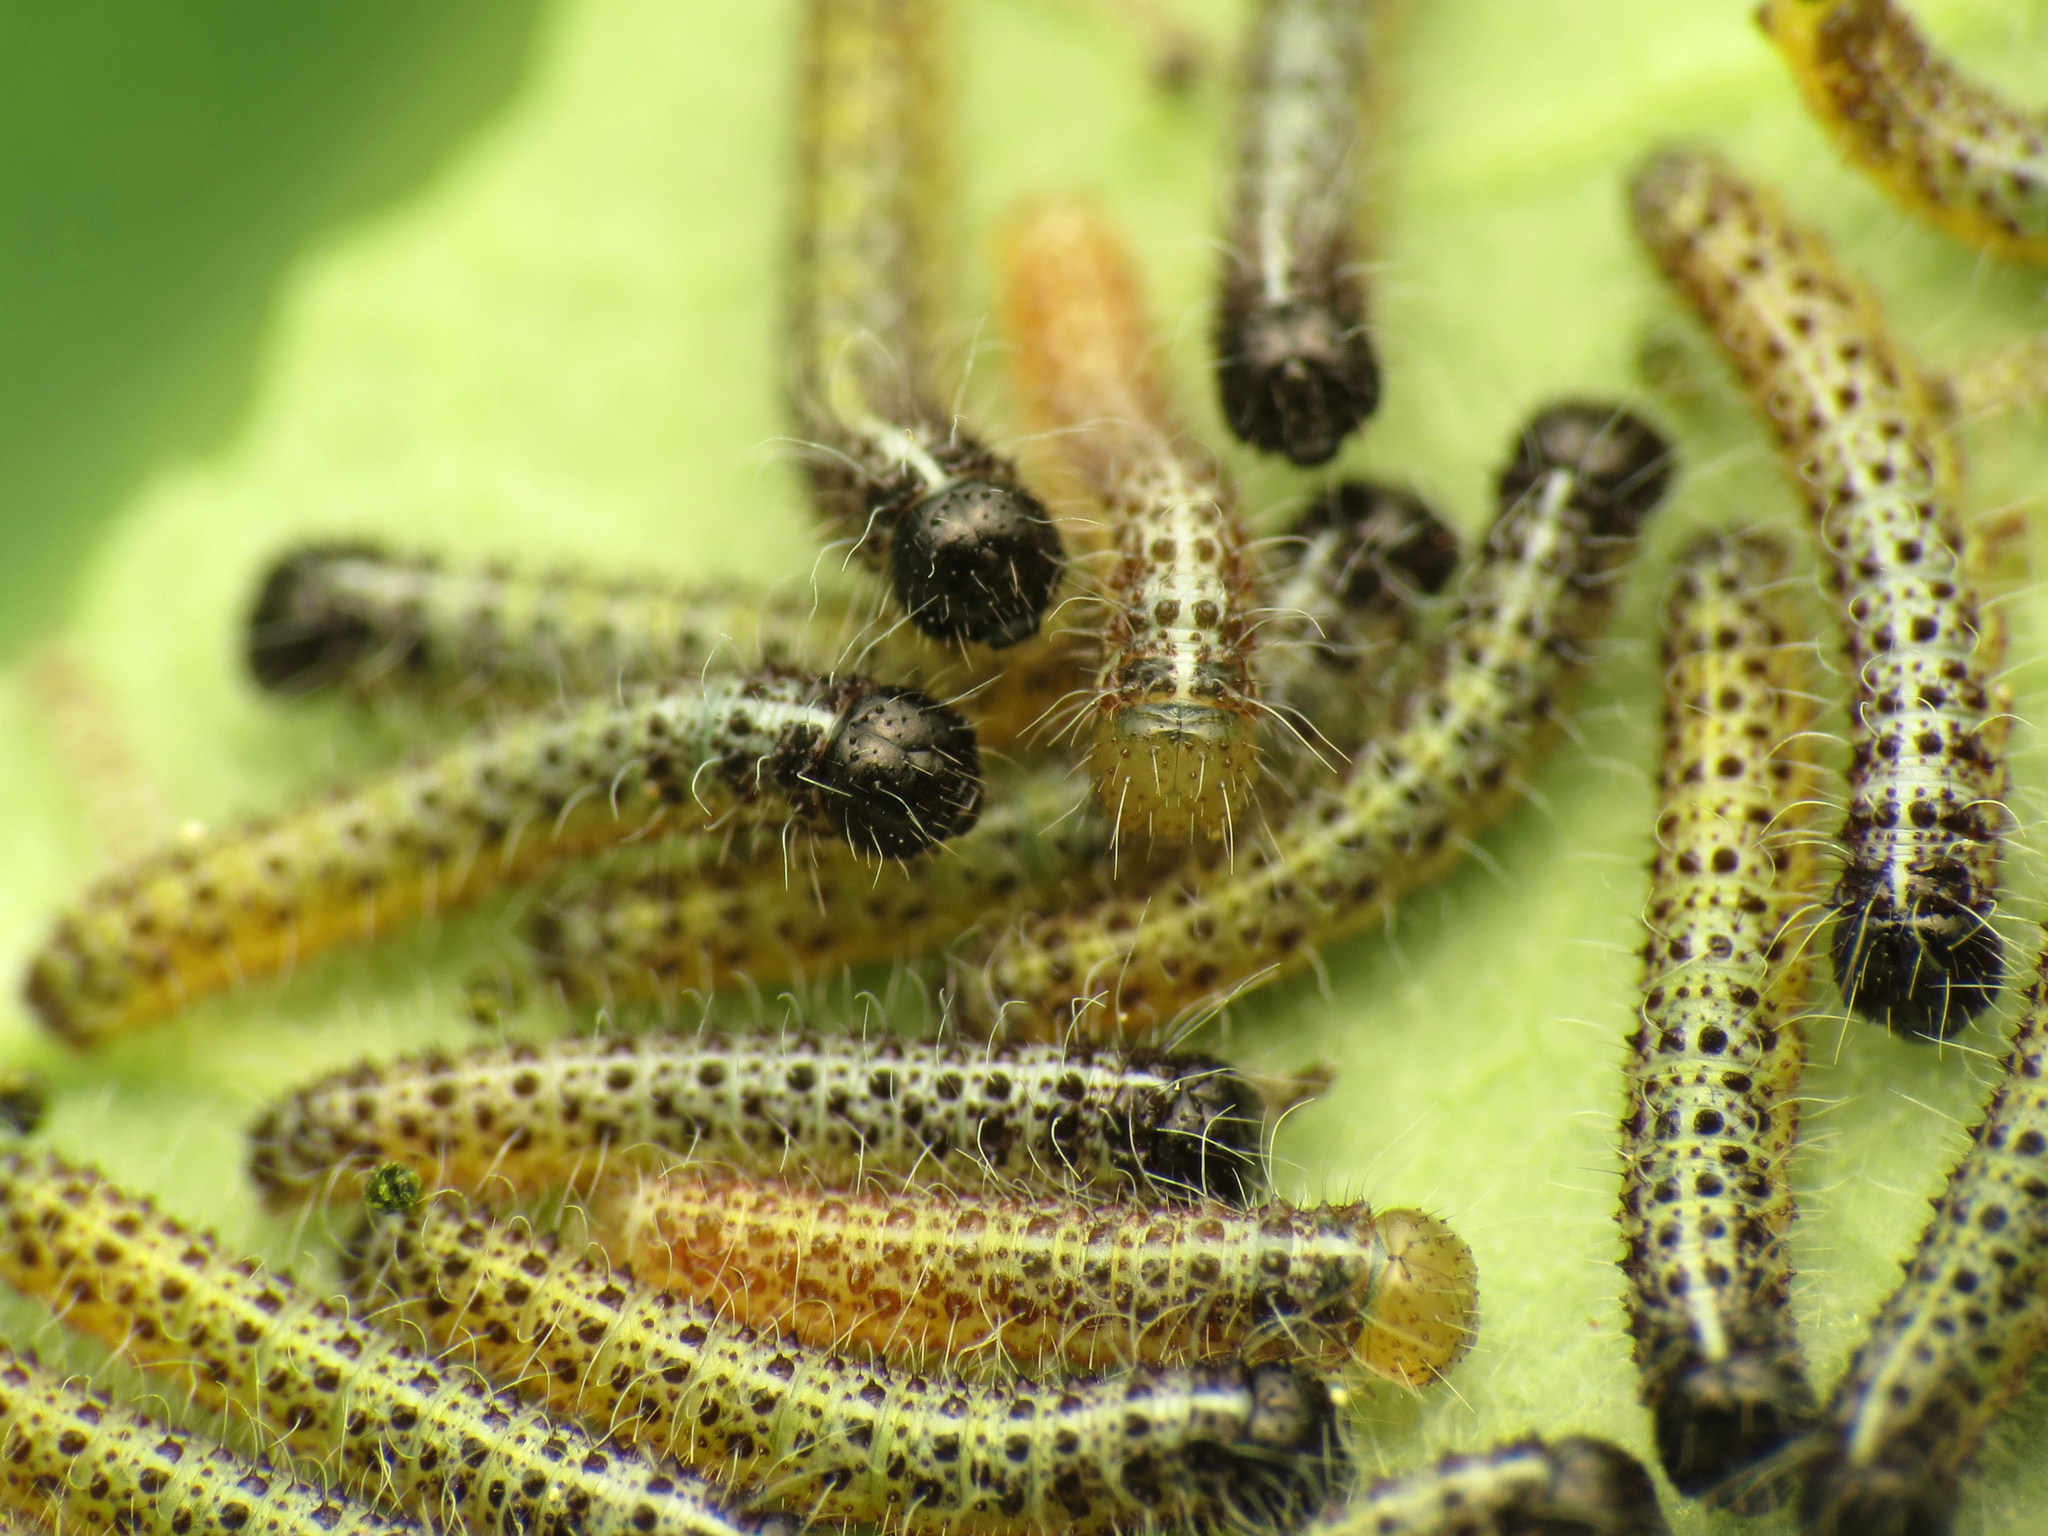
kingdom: Animalia
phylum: Arthropoda
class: Insecta
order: Lepidoptera
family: Pieridae
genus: Pieris
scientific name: Pieris brassicae
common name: Large white
